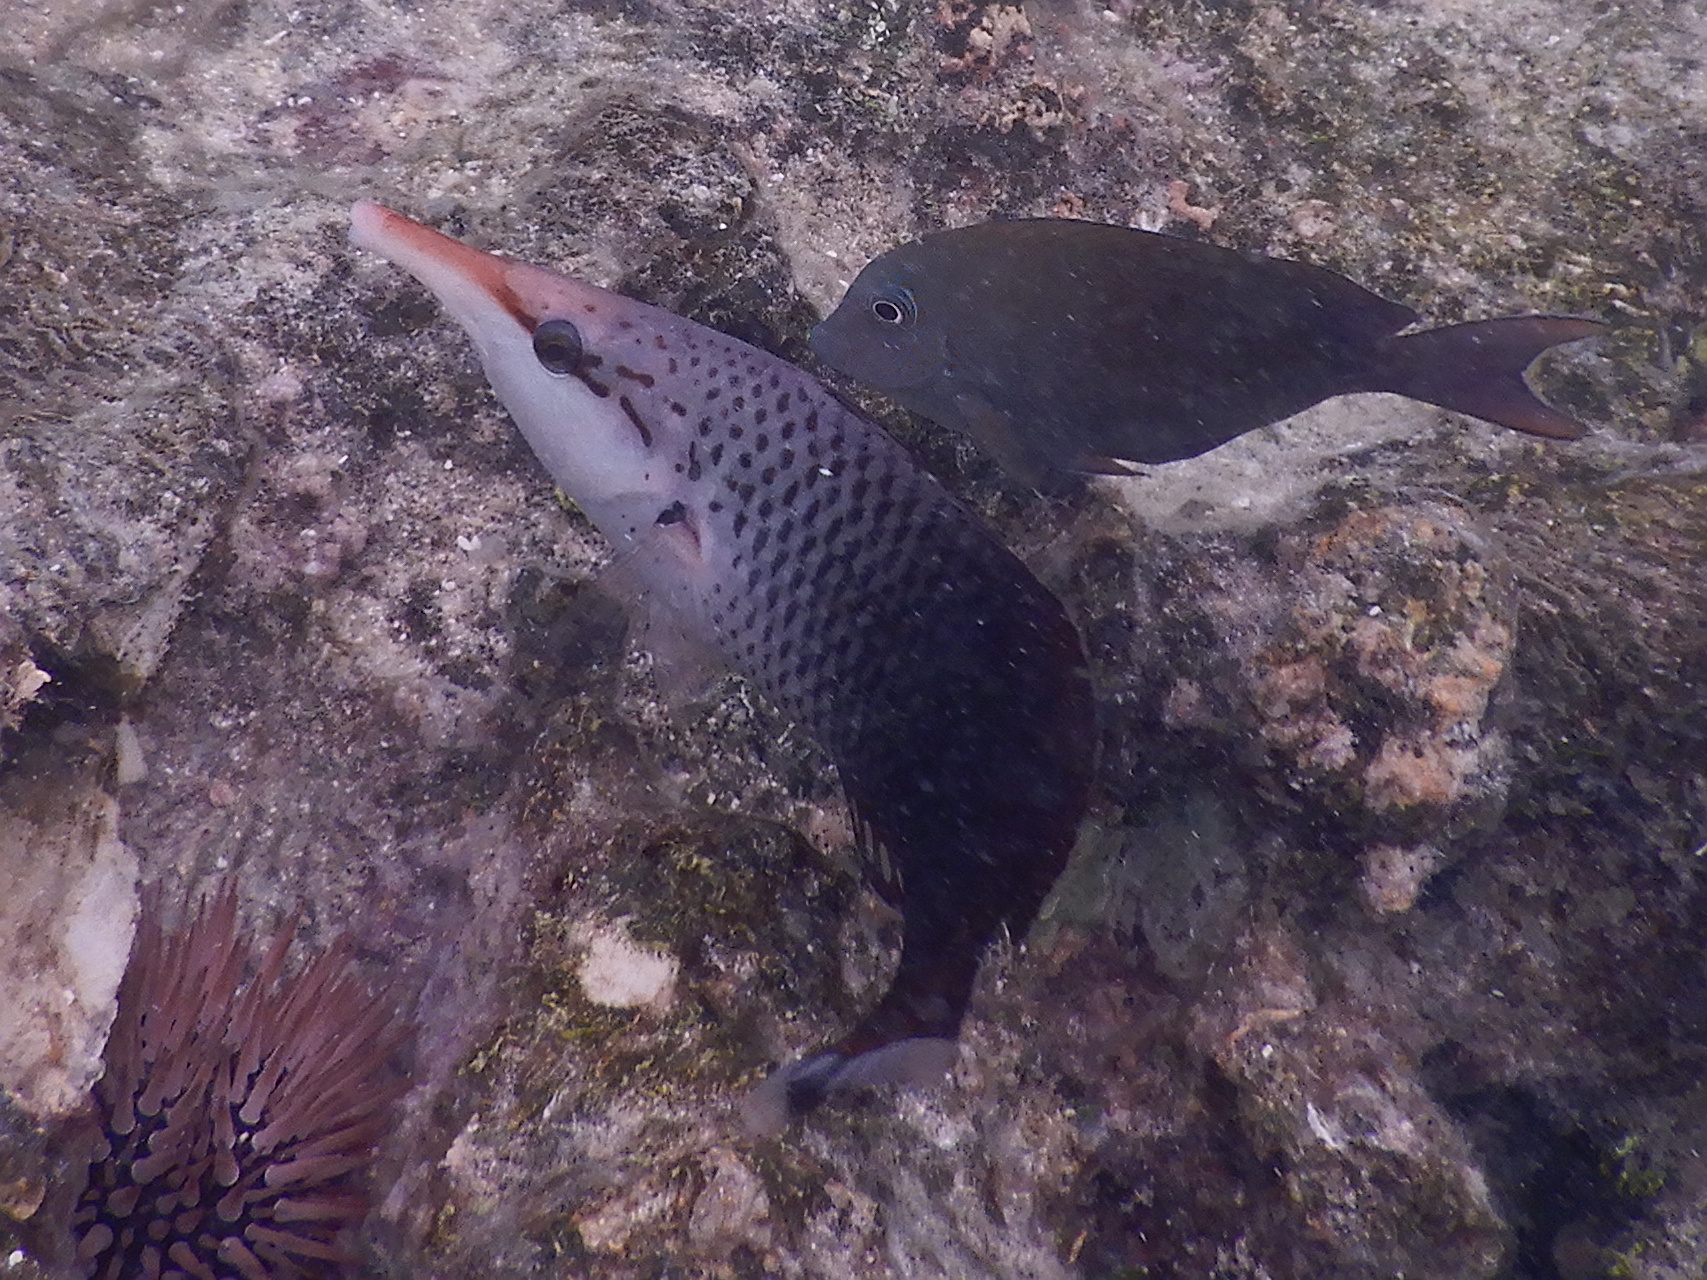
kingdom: Animalia
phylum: Chordata
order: Perciformes
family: Labridae
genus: Gomphosus
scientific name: Gomphosus varius
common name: Bird wrasse
